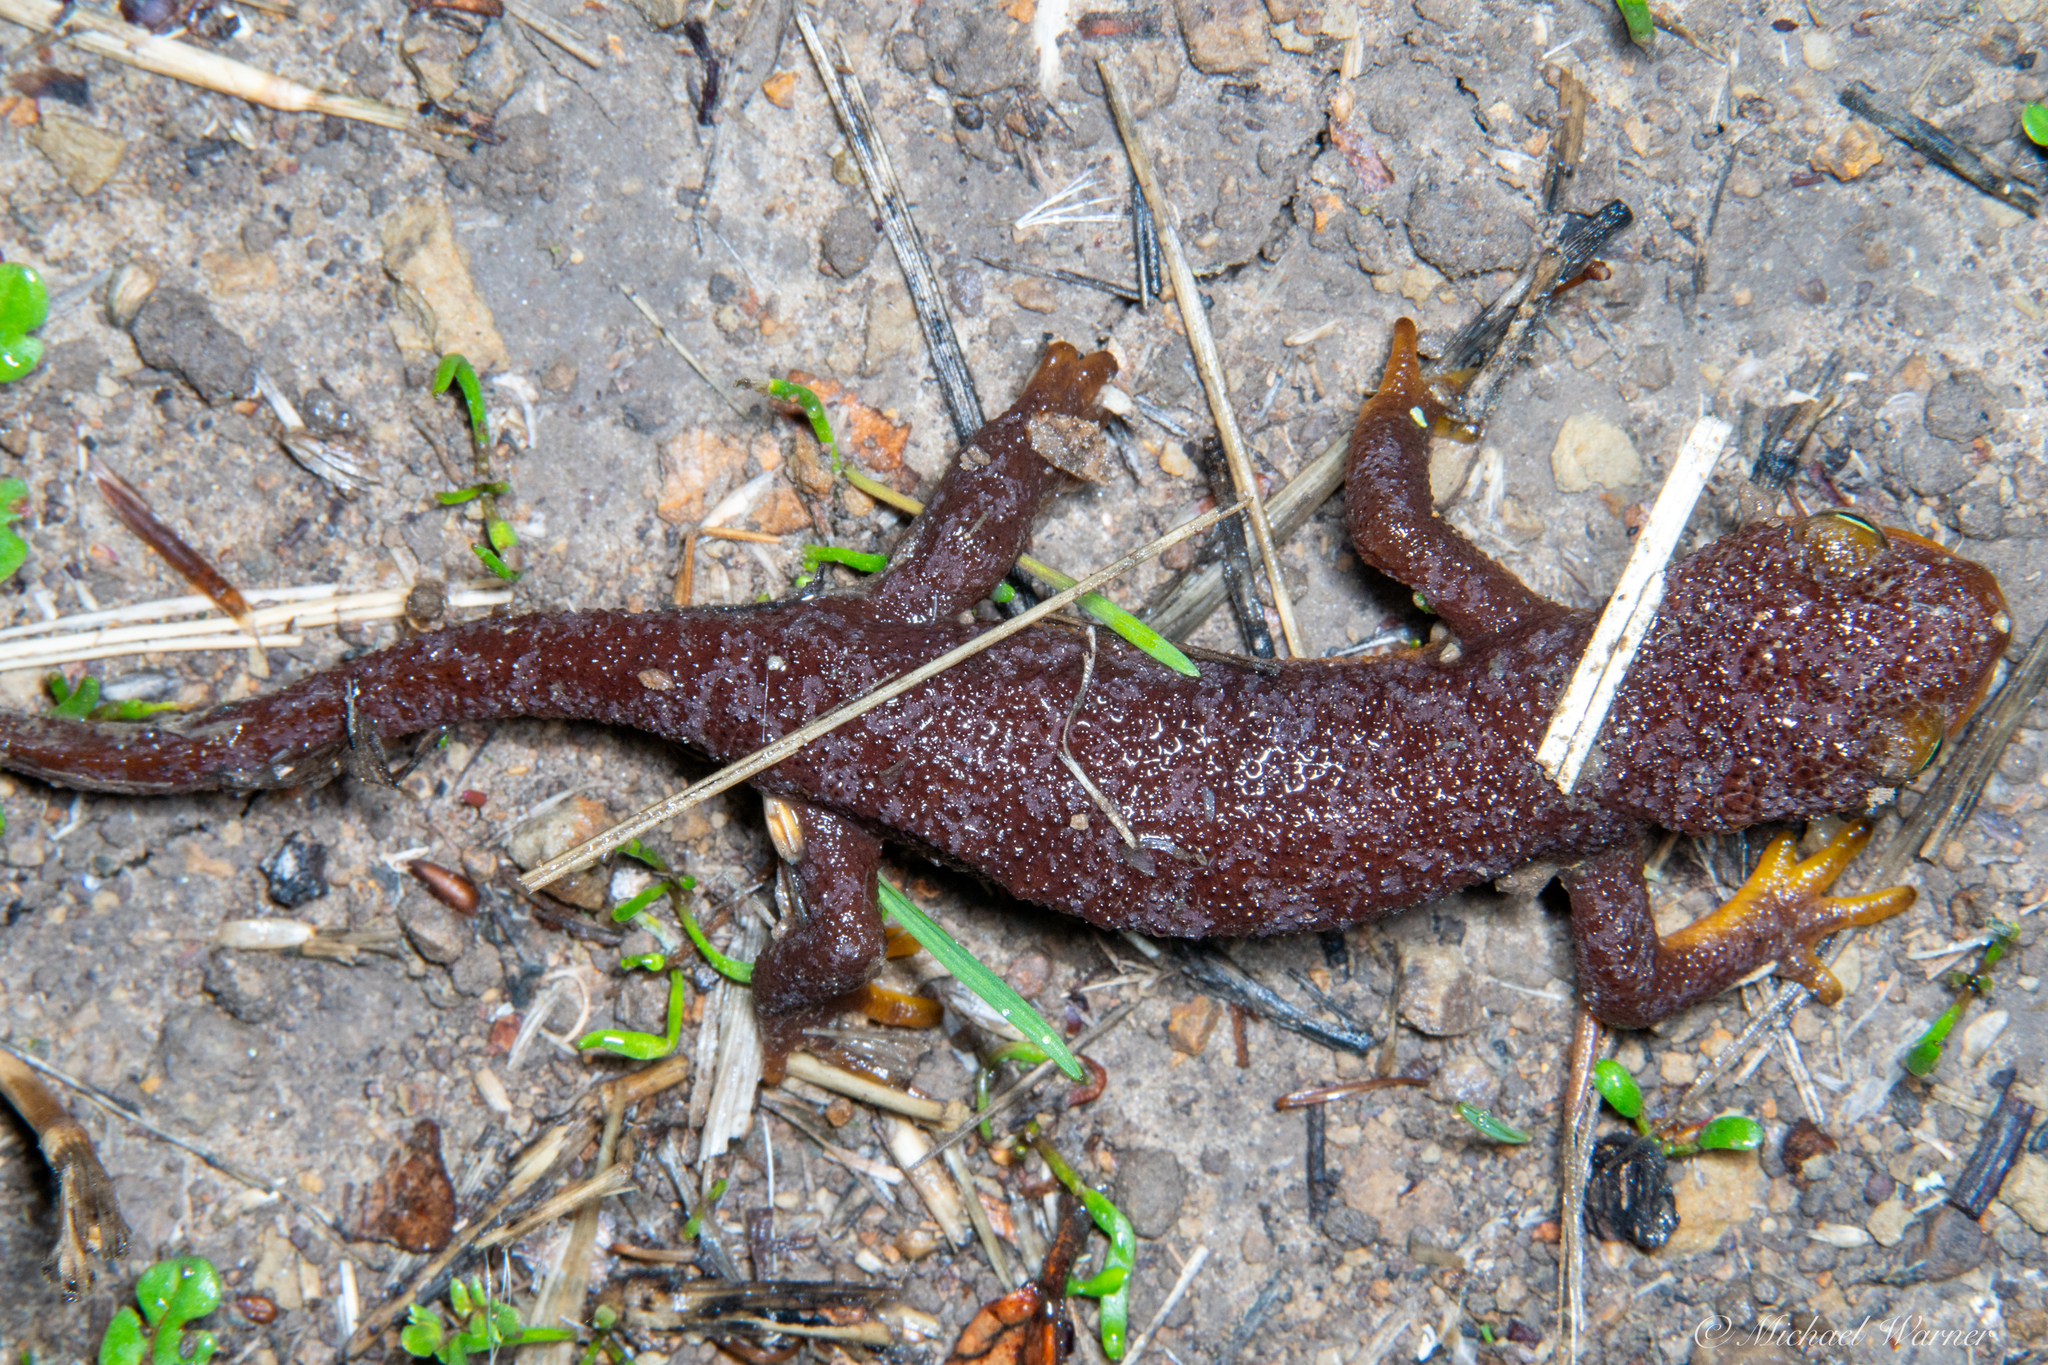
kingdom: Animalia
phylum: Chordata
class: Amphibia
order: Caudata
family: Salamandridae
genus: Taricha
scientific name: Taricha torosa
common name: California newt
